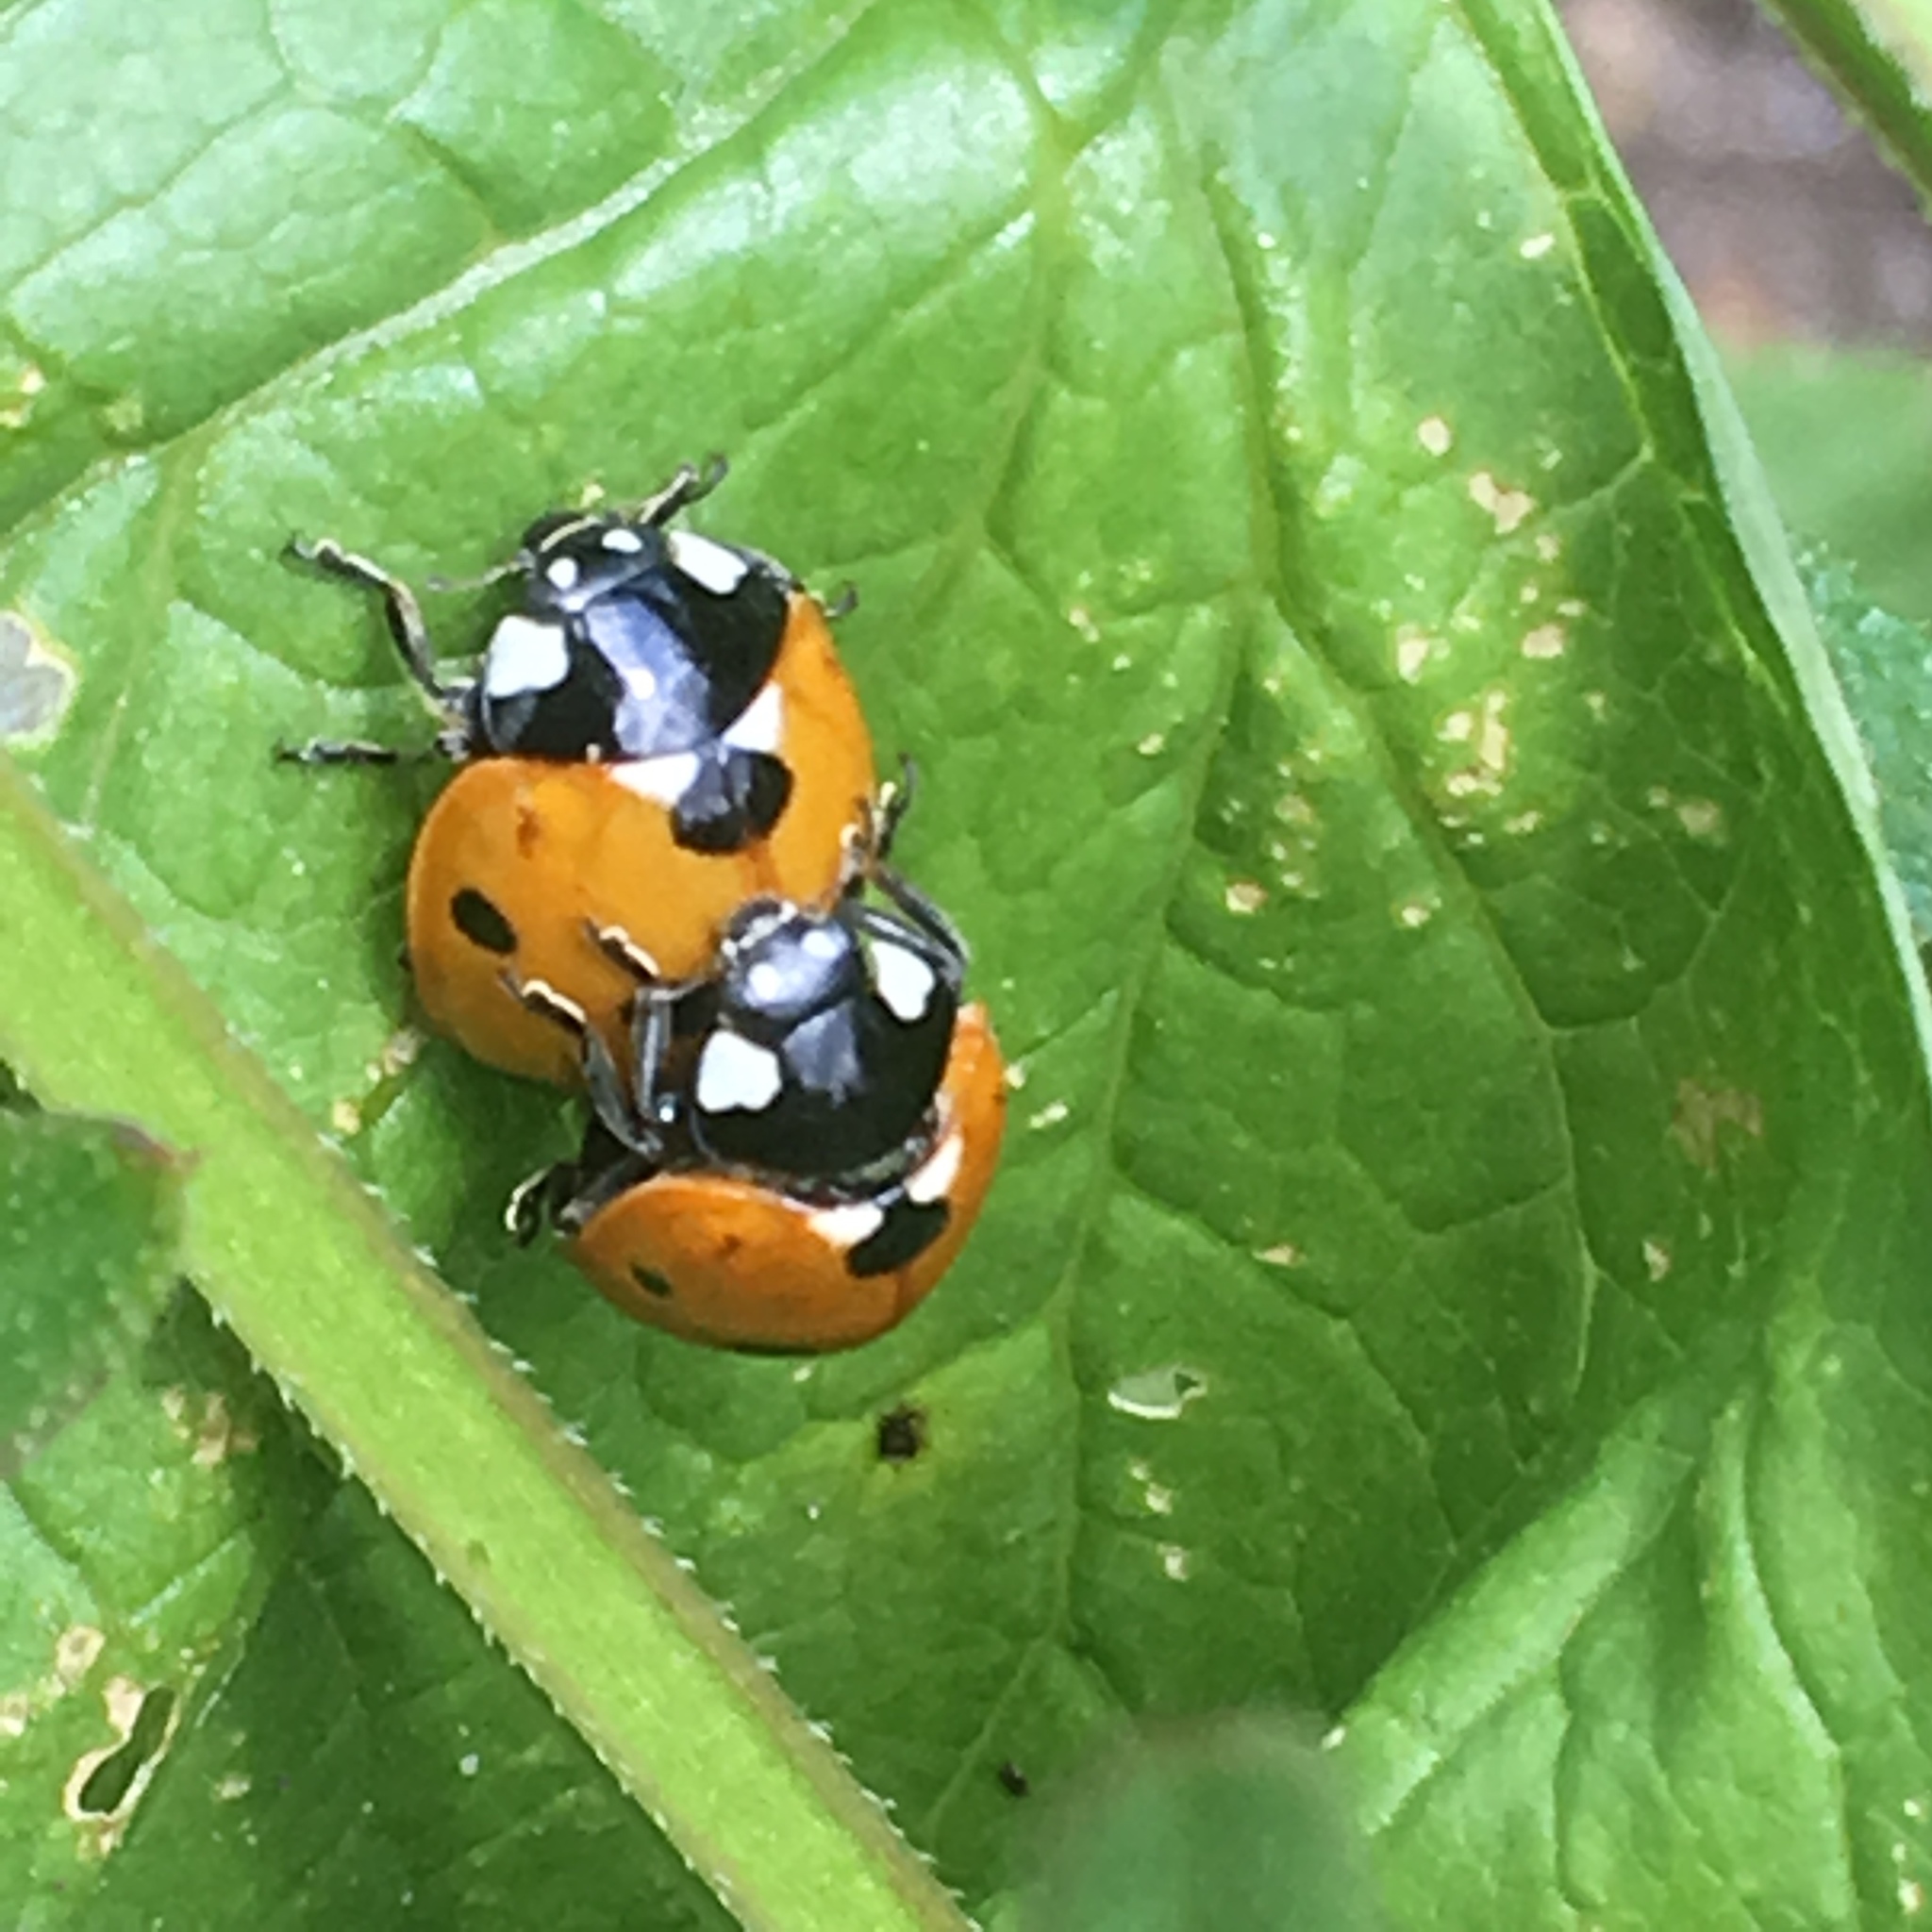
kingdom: Animalia
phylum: Arthropoda
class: Insecta
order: Coleoptera
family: Coccinellidae
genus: Coccinella
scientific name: Coccinella septempunctata
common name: Sevenspotted lady beetle
